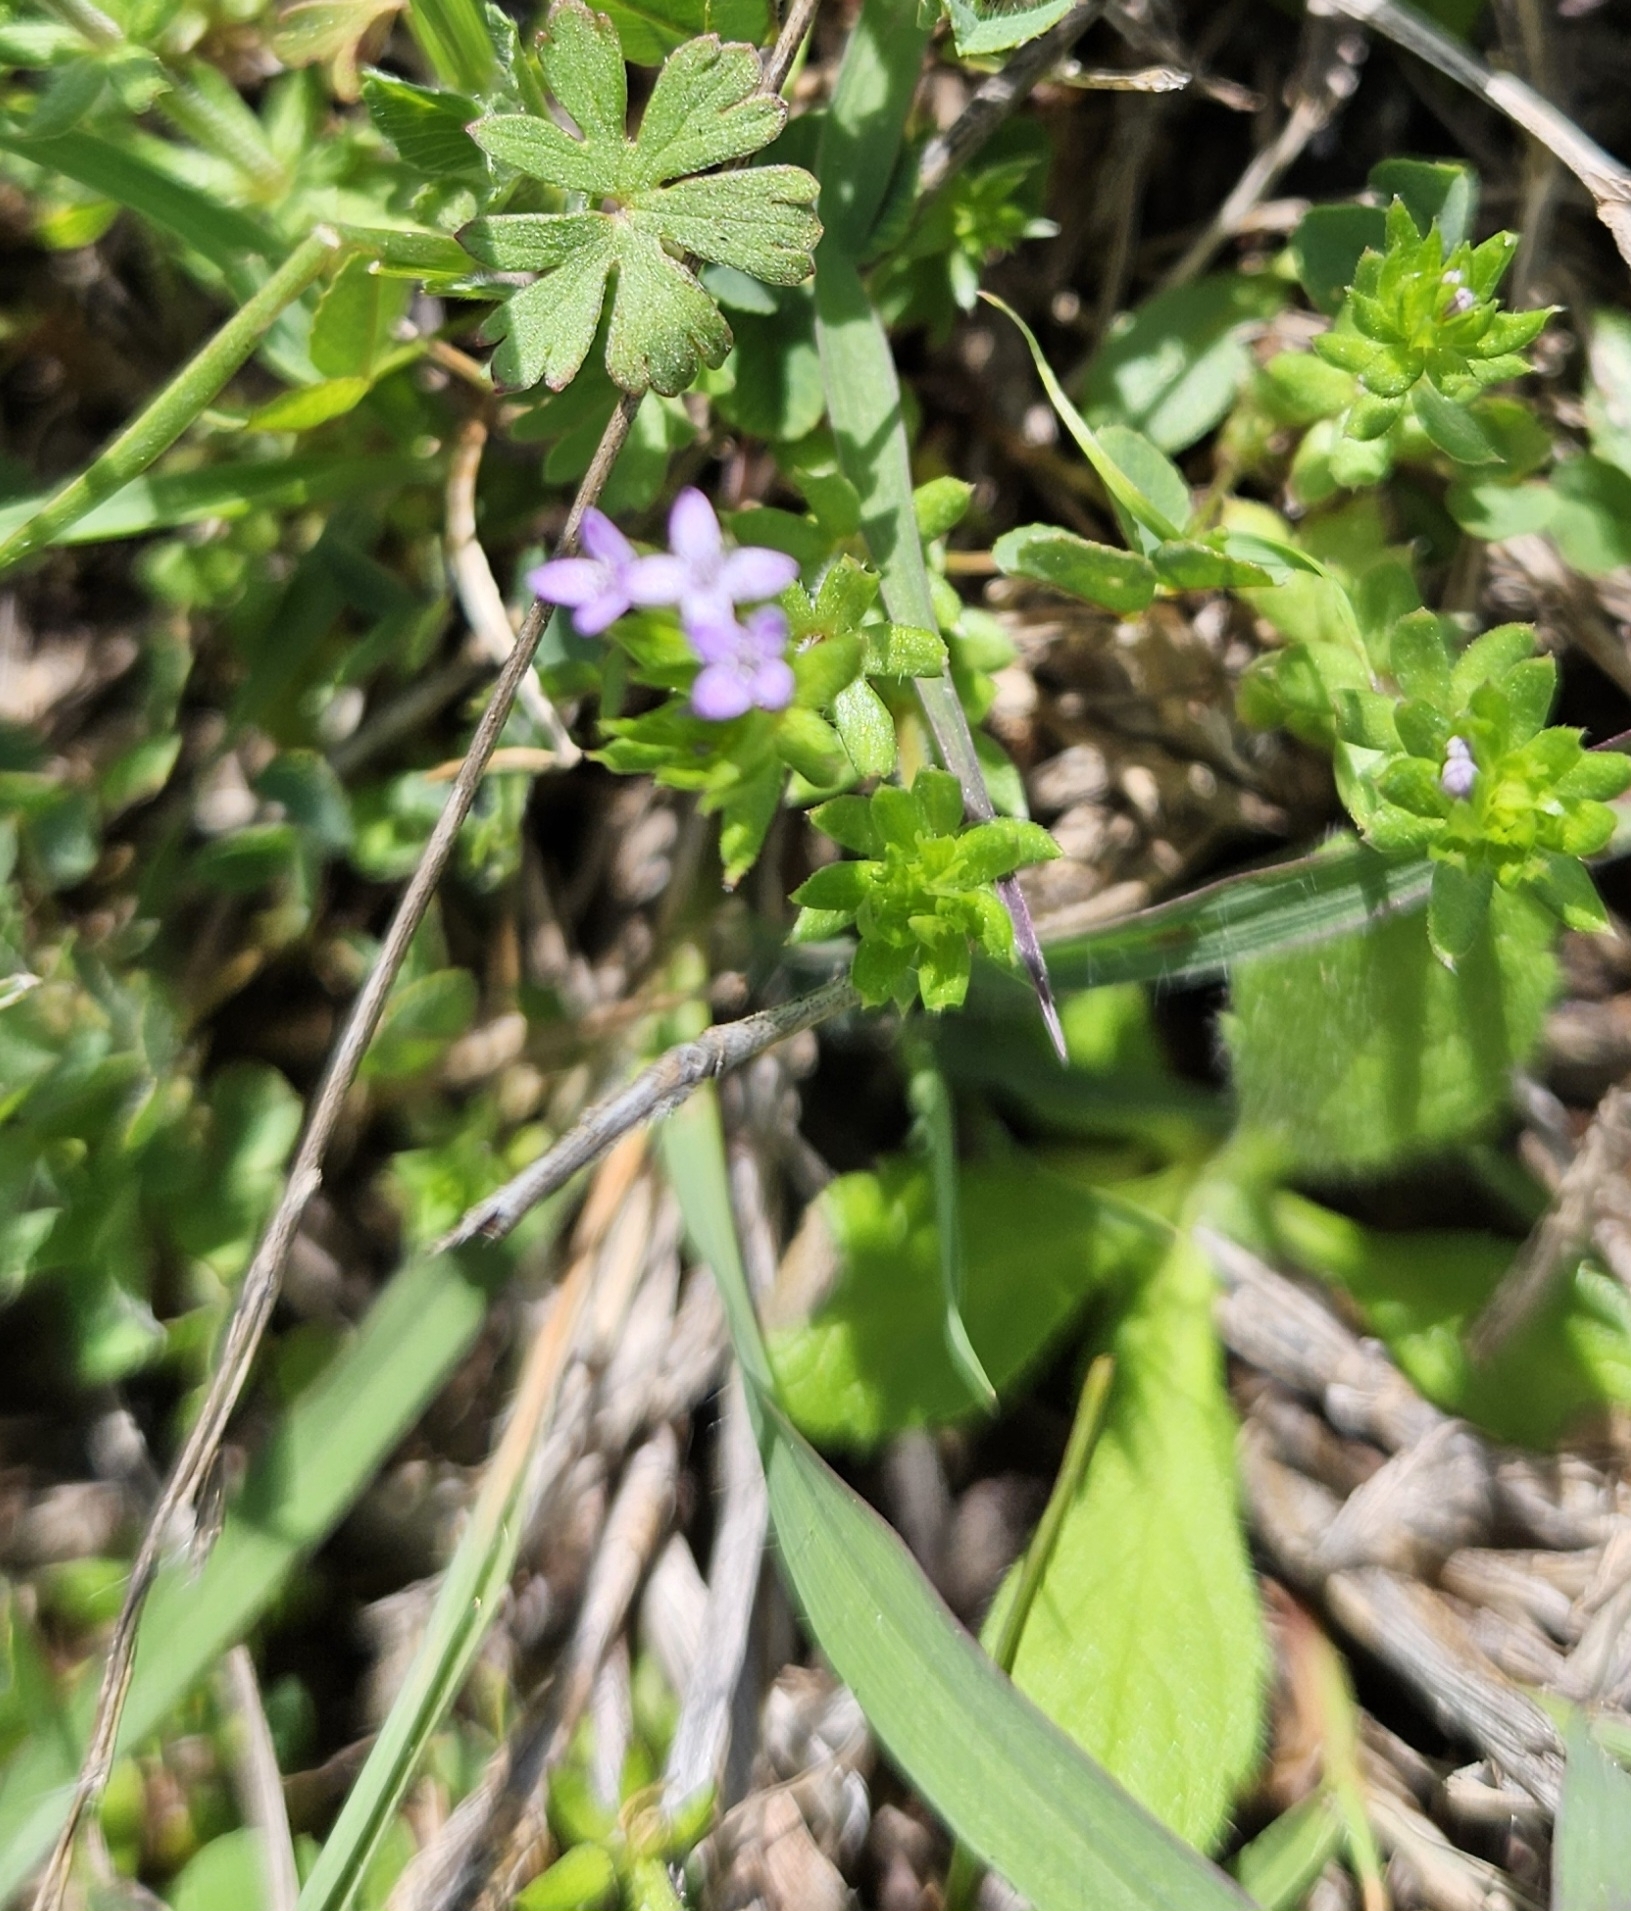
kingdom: Plantae
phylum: Tracheophyta
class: Magnoliopsida
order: Gentianales
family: Rubiaceae
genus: Sherardia
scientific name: Sherardia arvensis
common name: Field madder
